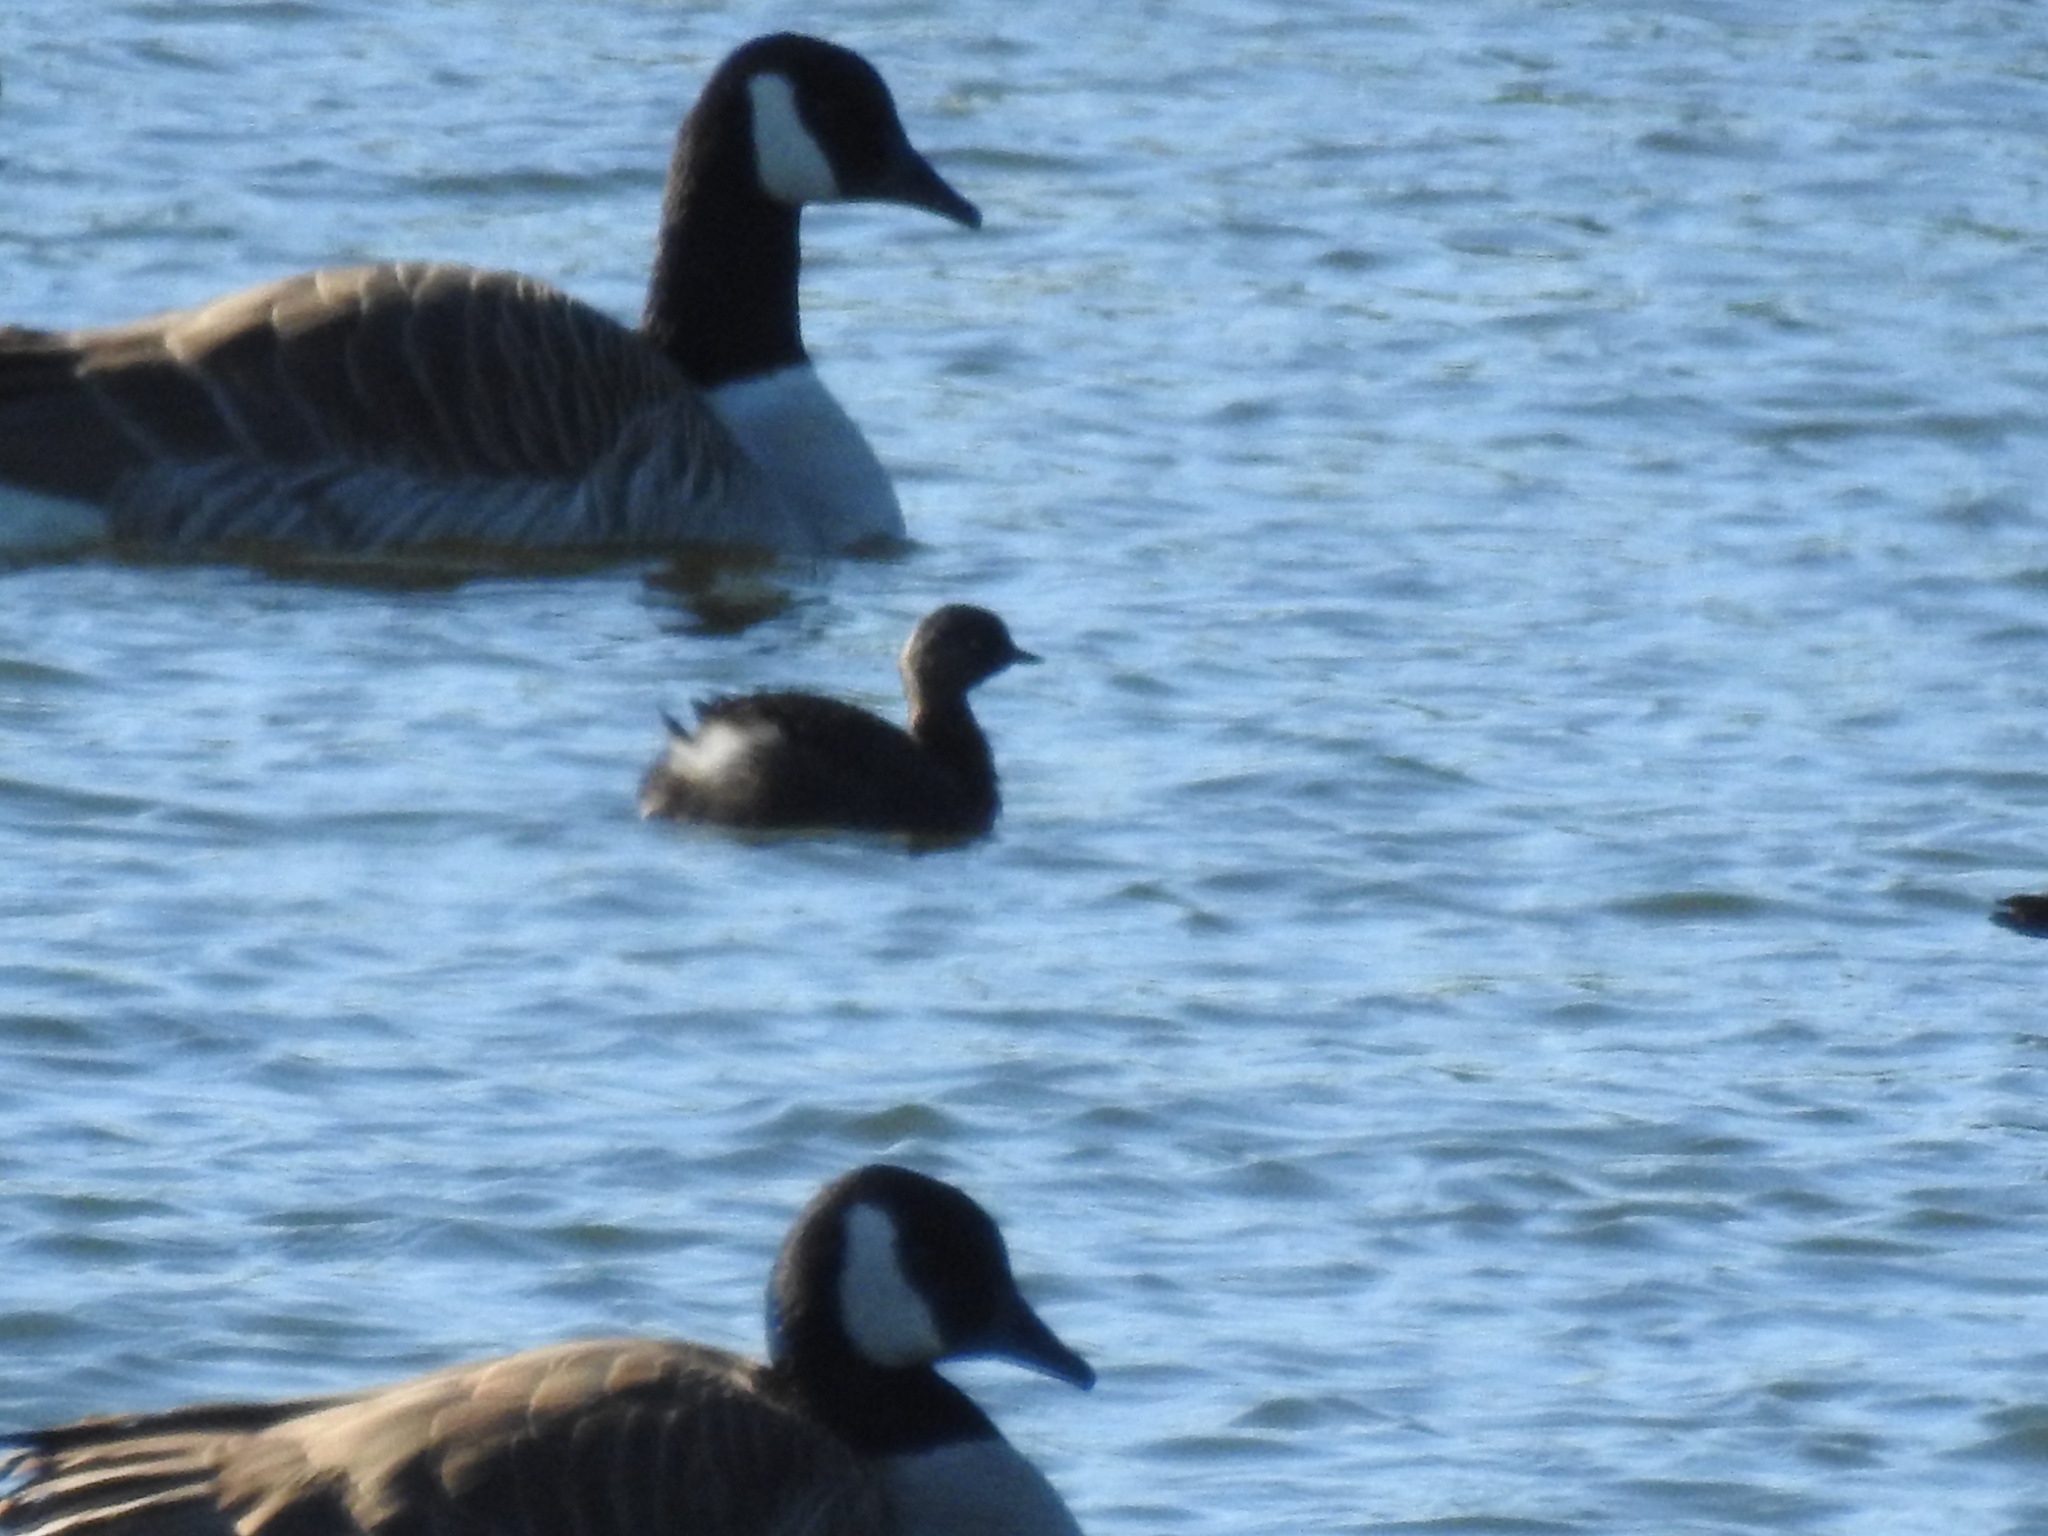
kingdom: Animalia
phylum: Chordata
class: Aves
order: Podicipediformes
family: Podicipedidae
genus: Poliocephalus
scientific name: Poliocephalus rufopectus
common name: New zealand grebe
